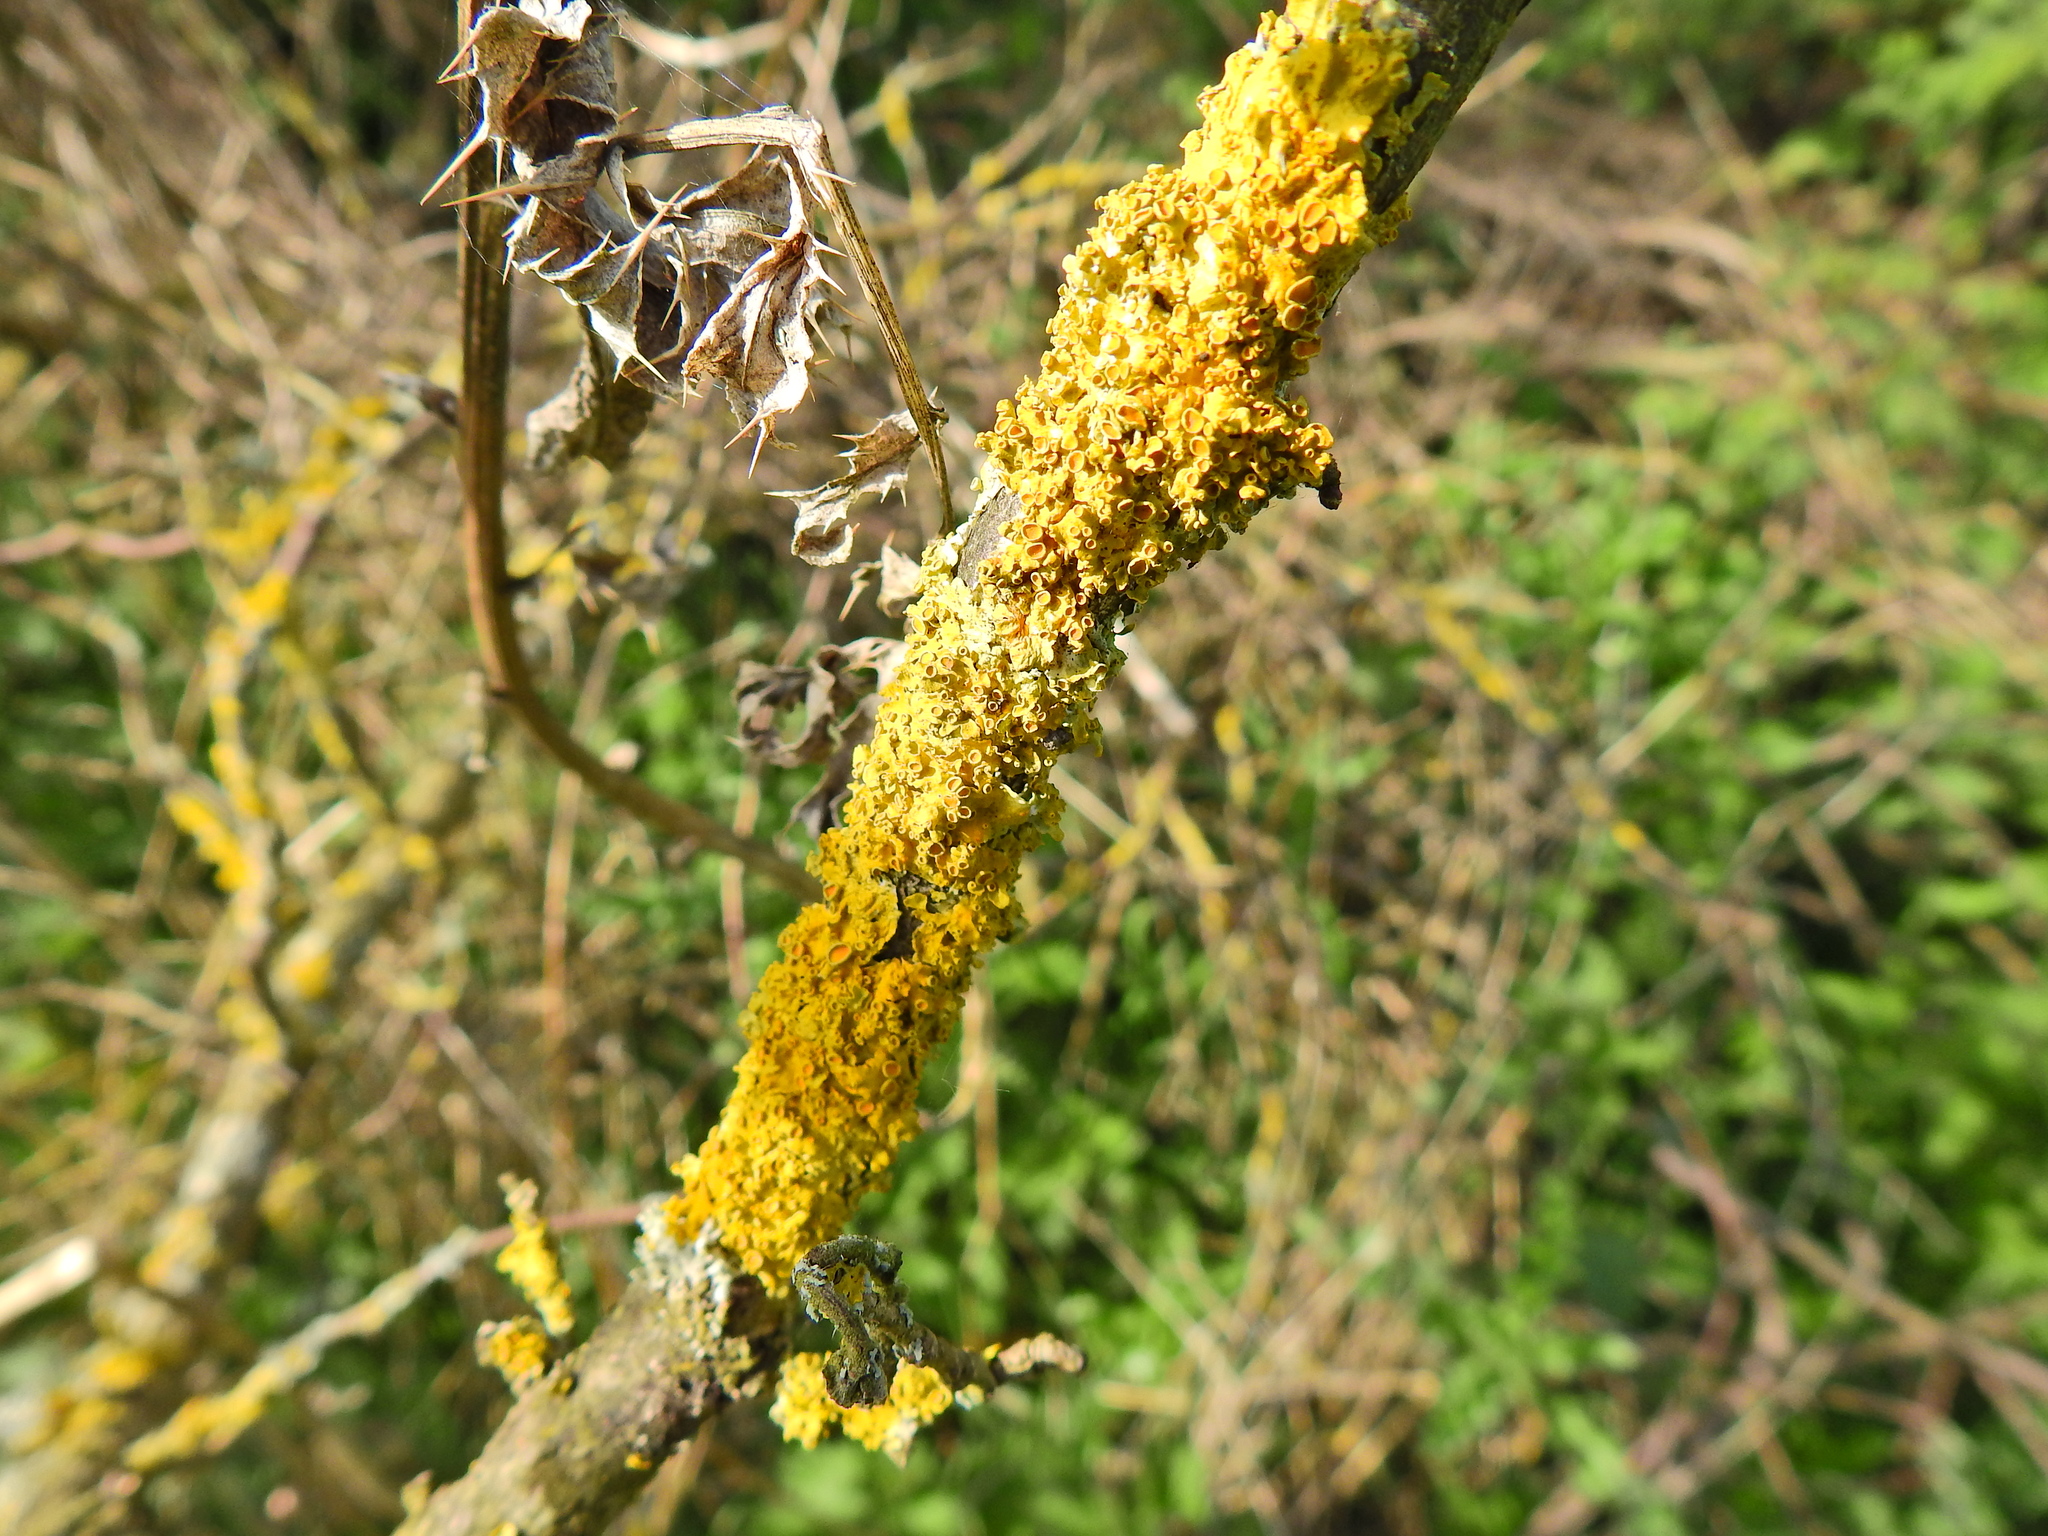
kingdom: Fungi
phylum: Ascomycota
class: Lecanoromycetes
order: Teloschistales
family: Teloschistaceae
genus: Xanthoria
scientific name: Xanthoria parietina
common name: Common orange lichen
